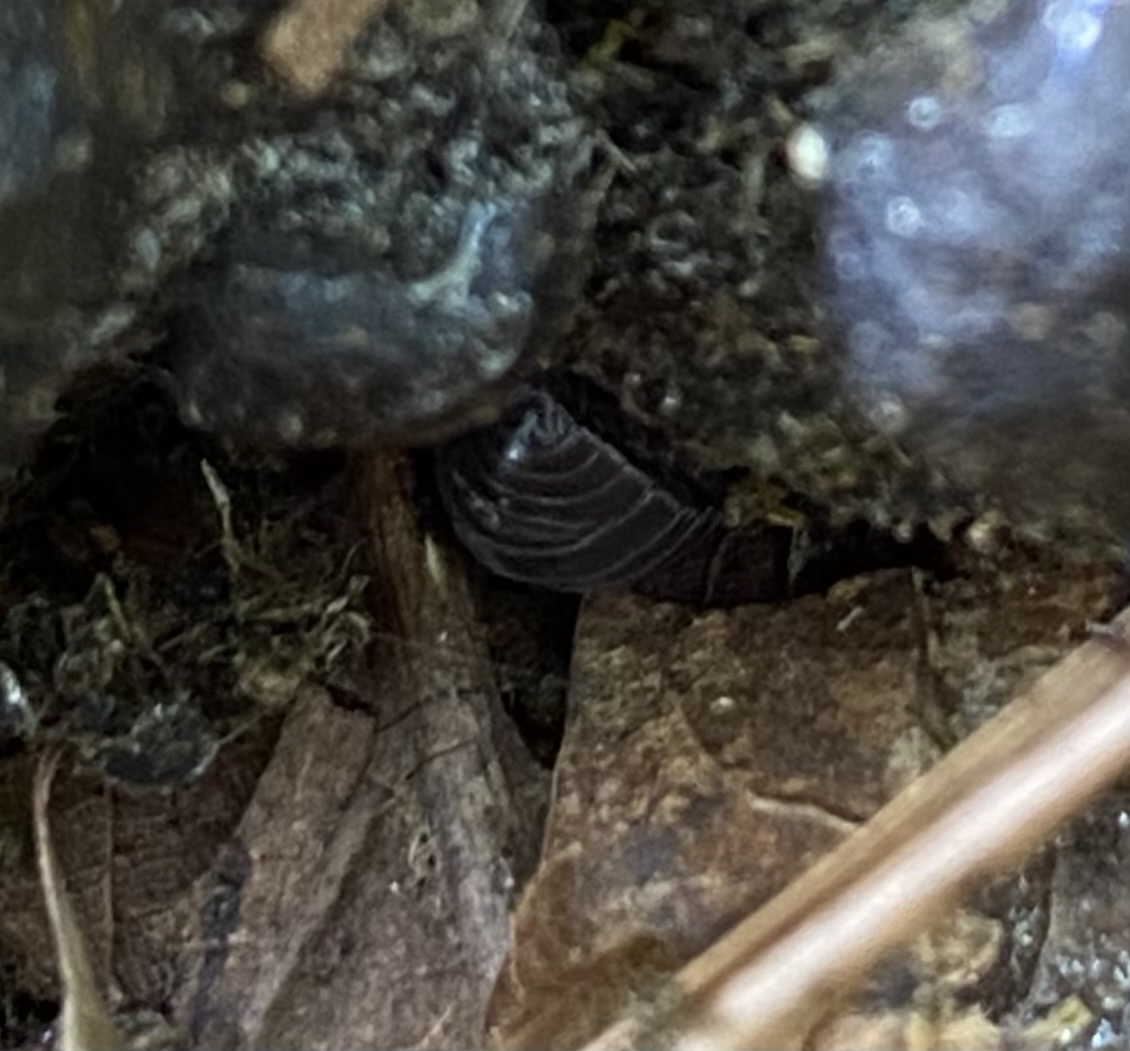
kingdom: Animalia
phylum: Arthropoda
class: Malacostraca
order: Isopoda
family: Armadillidiidae
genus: Armadillidium
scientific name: Armadillidium vulgare
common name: Common pill woodlouse
